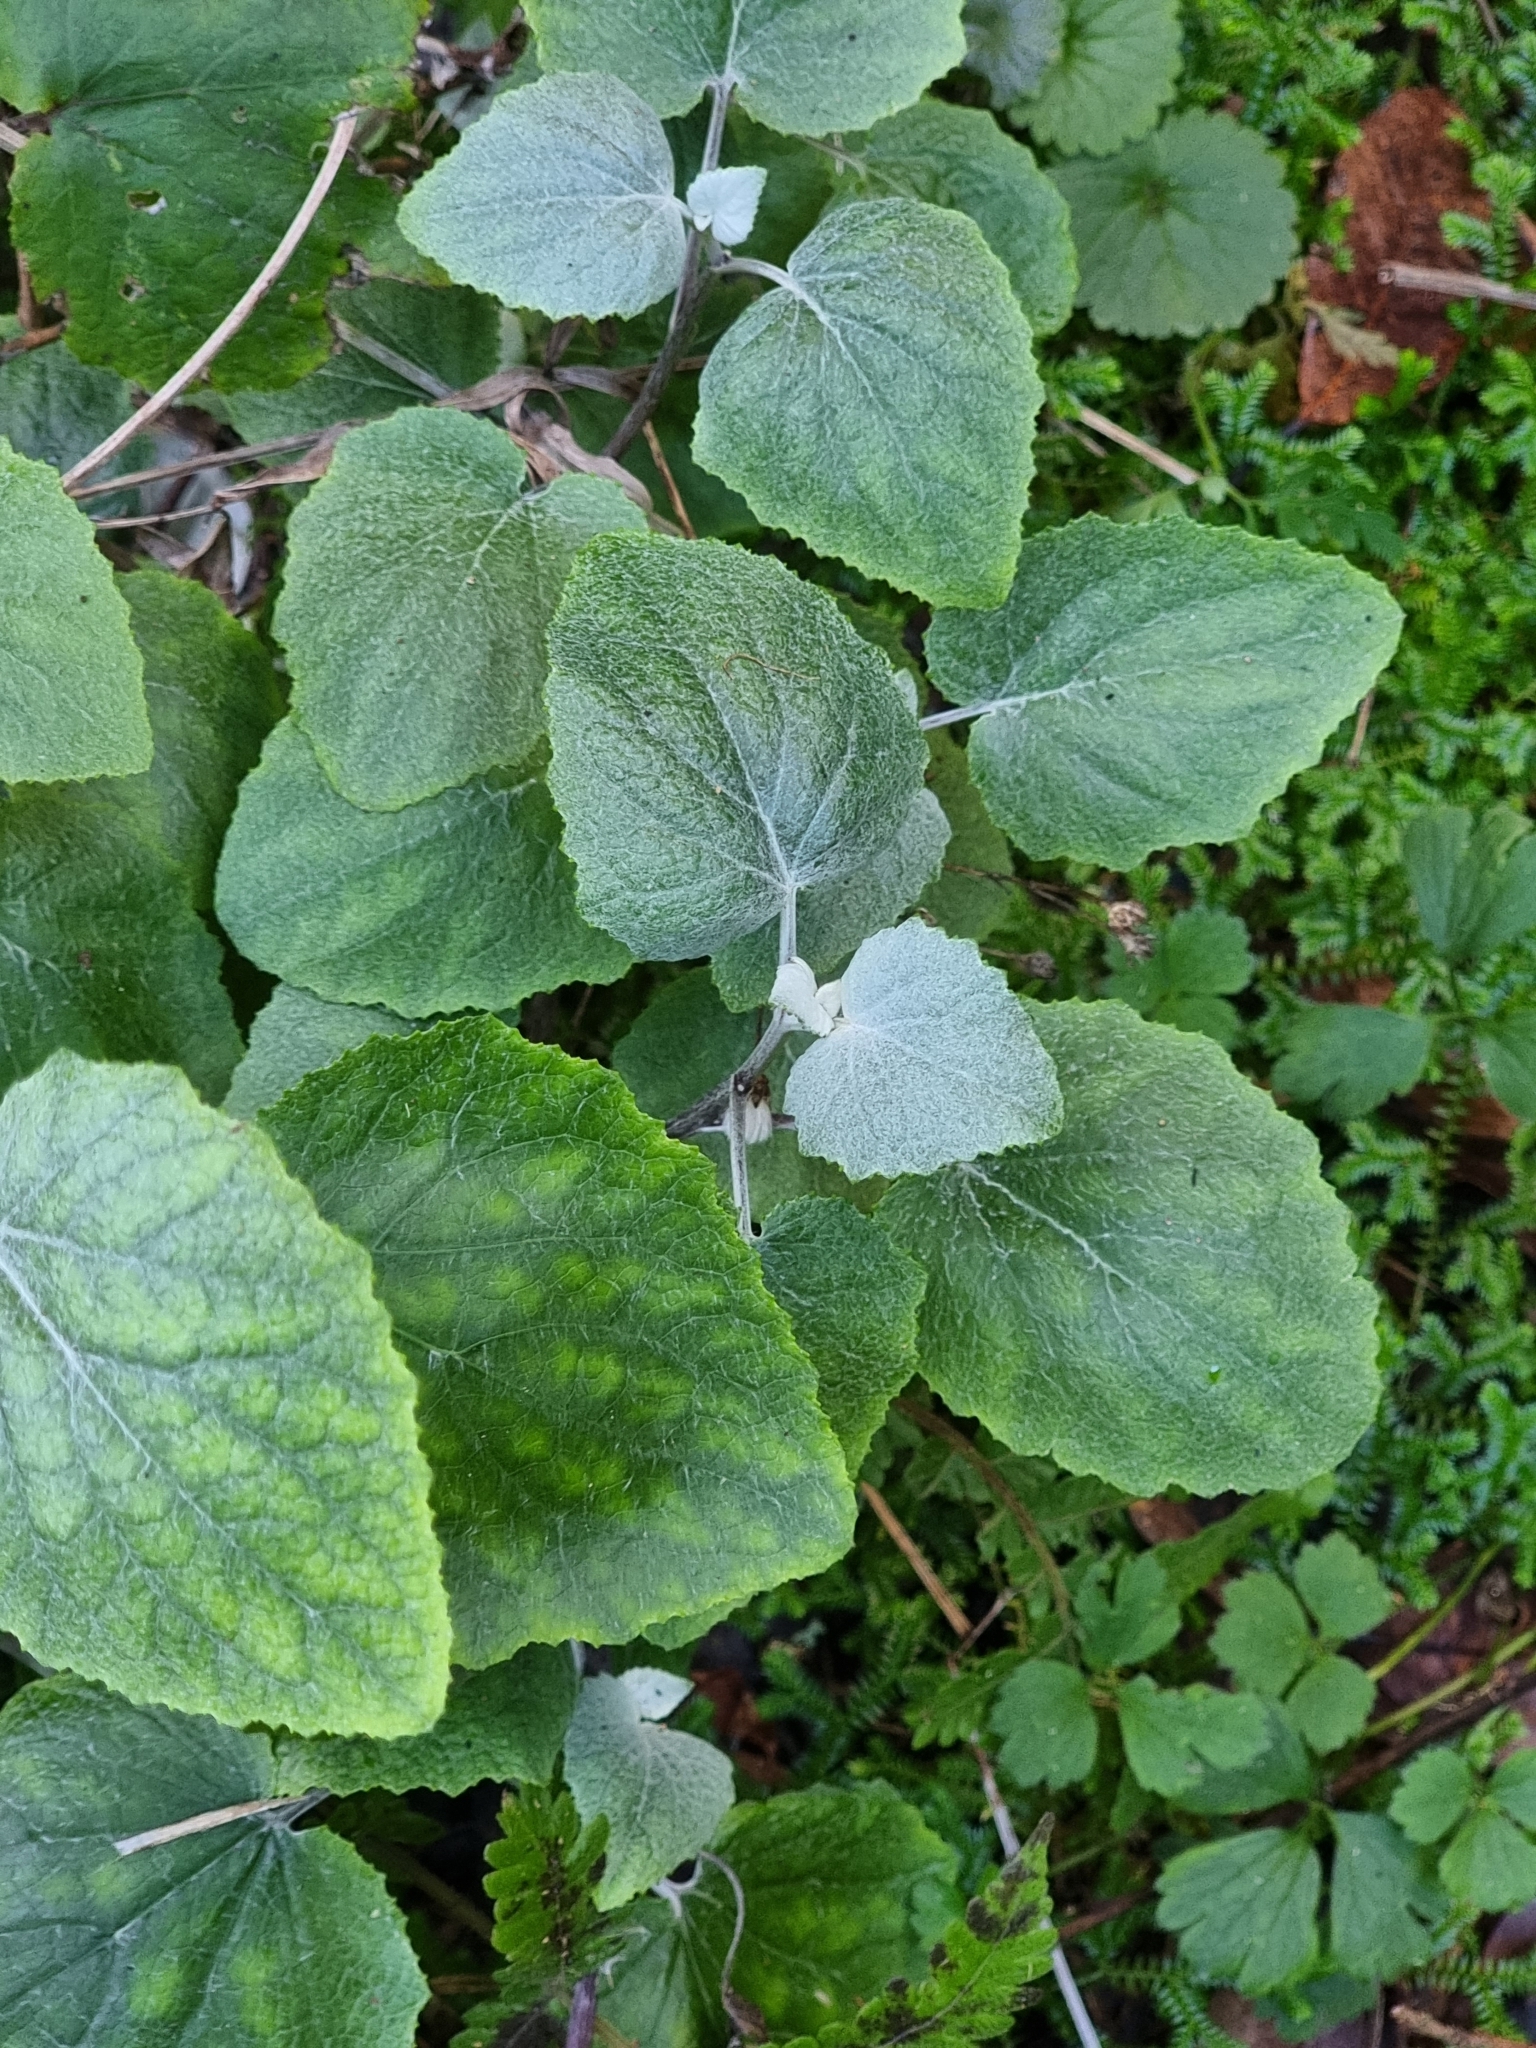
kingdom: Plantae
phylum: Tracheophyta
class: Magnoliopsida
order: Asterales
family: Asteraceae
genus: Pericallis
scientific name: Pericallis aurita
